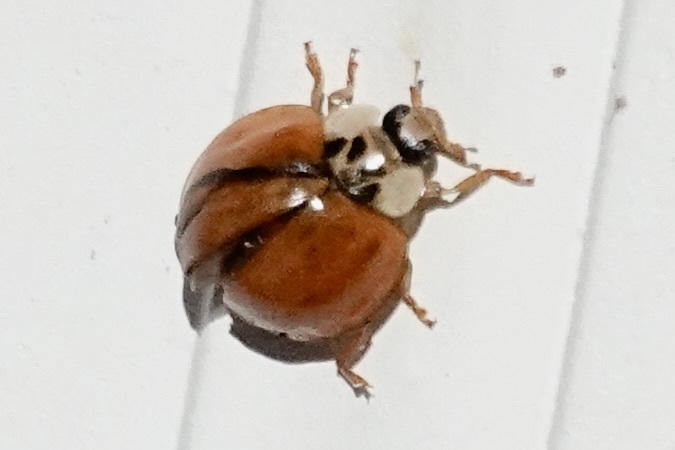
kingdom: Animalia
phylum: Arthropoda
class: Insecta
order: Coleoptera
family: Coccinellidae
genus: Harmonia
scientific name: Harmonia axyridis
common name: Harlequin ladybird
